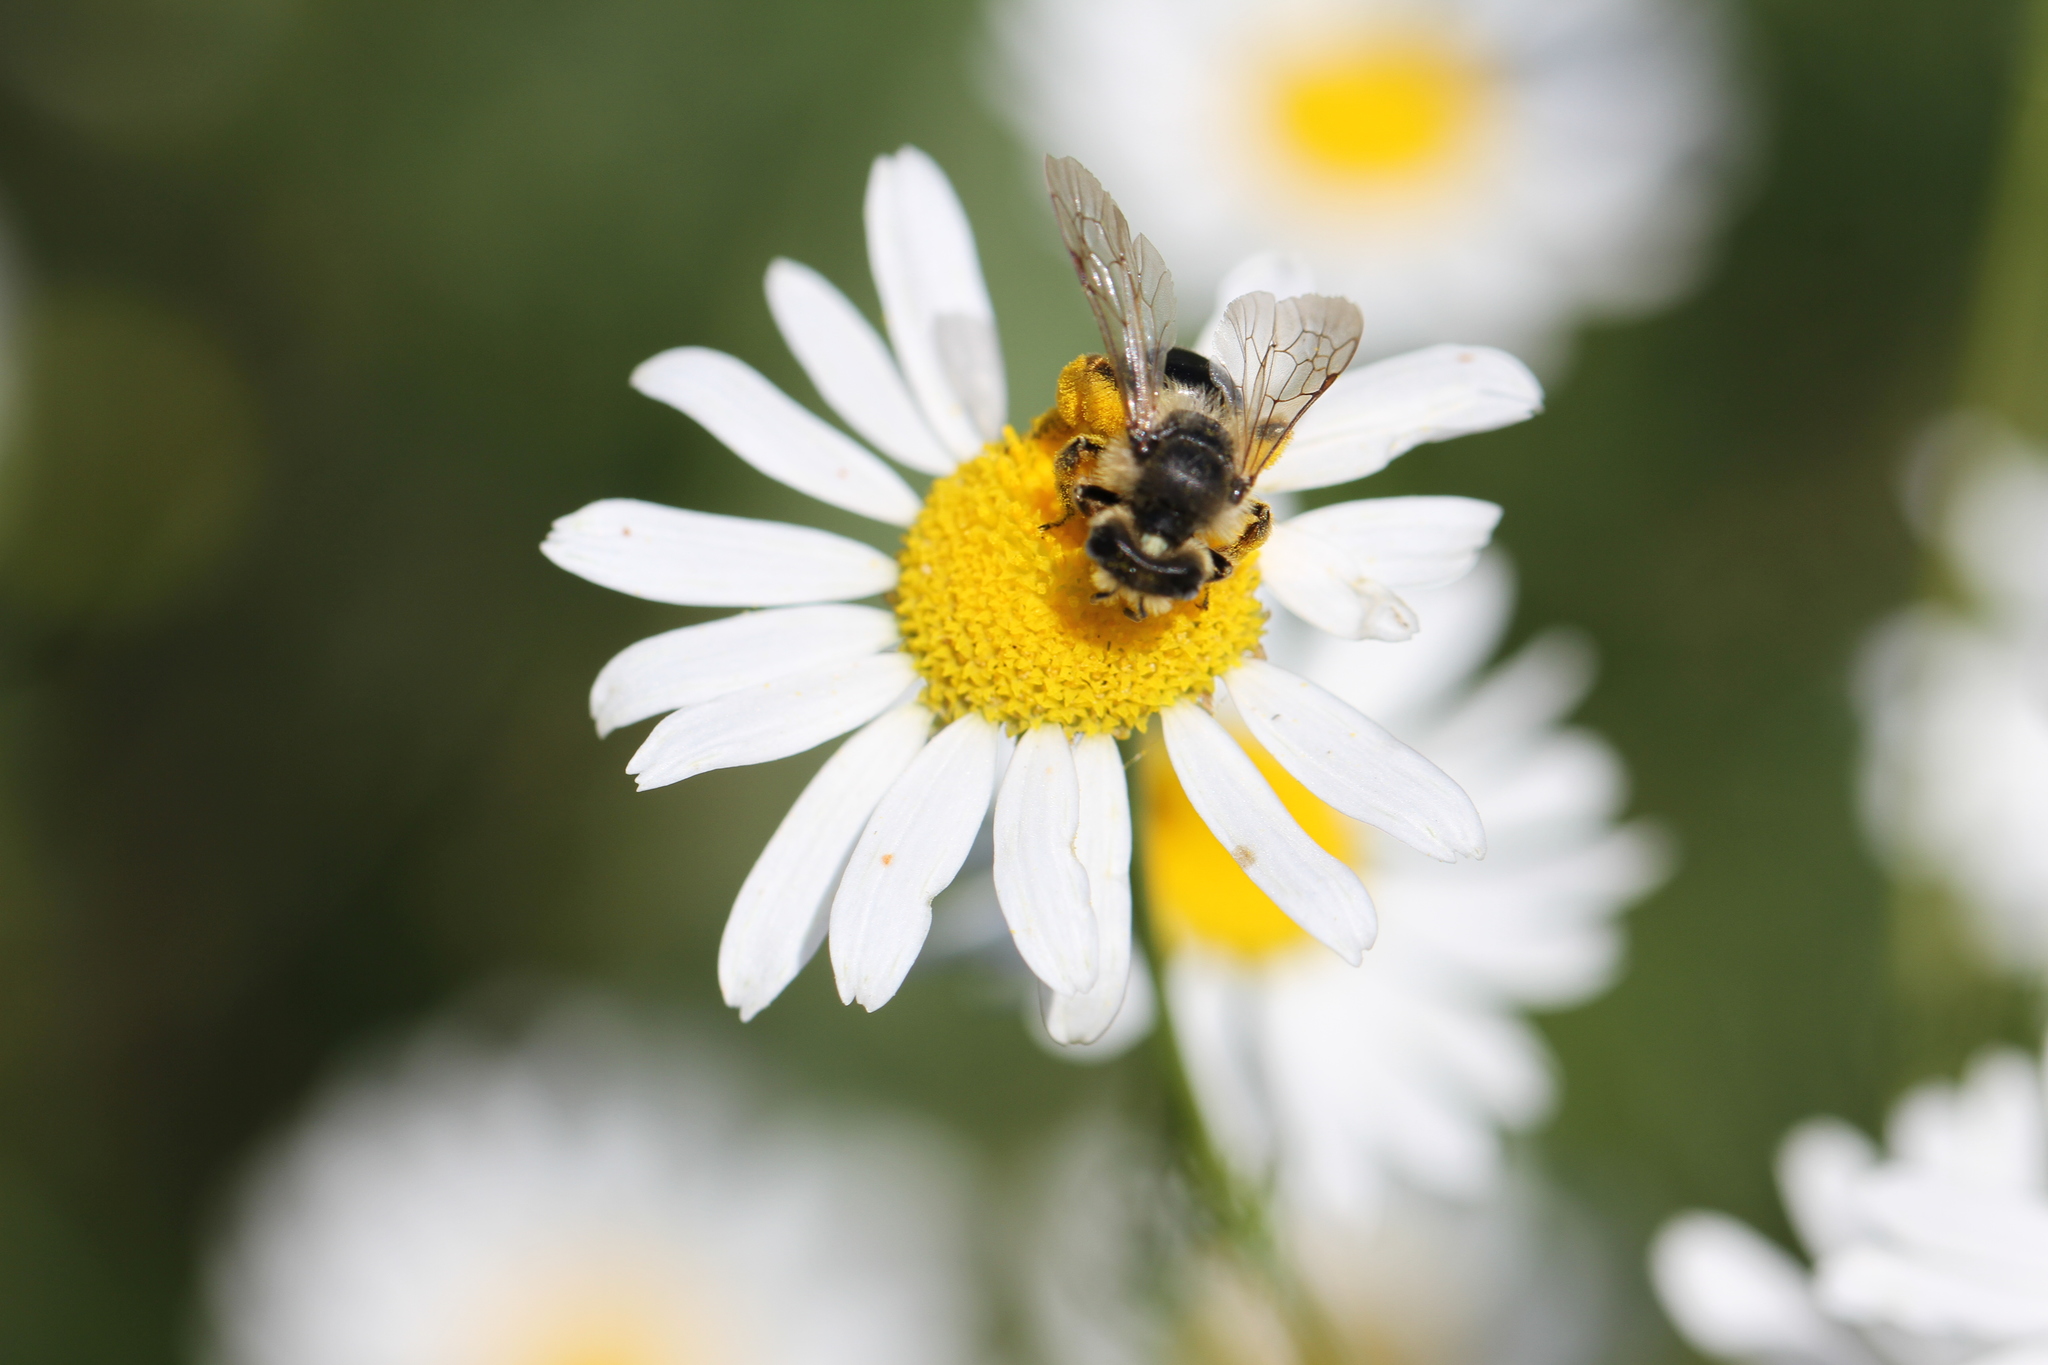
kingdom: Animalia
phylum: Arthropoda
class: Insecta
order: Hymenoptera
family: Andrenidae
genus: Andrena
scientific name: Andrena flavipes
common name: Yellow-legged mining bee
